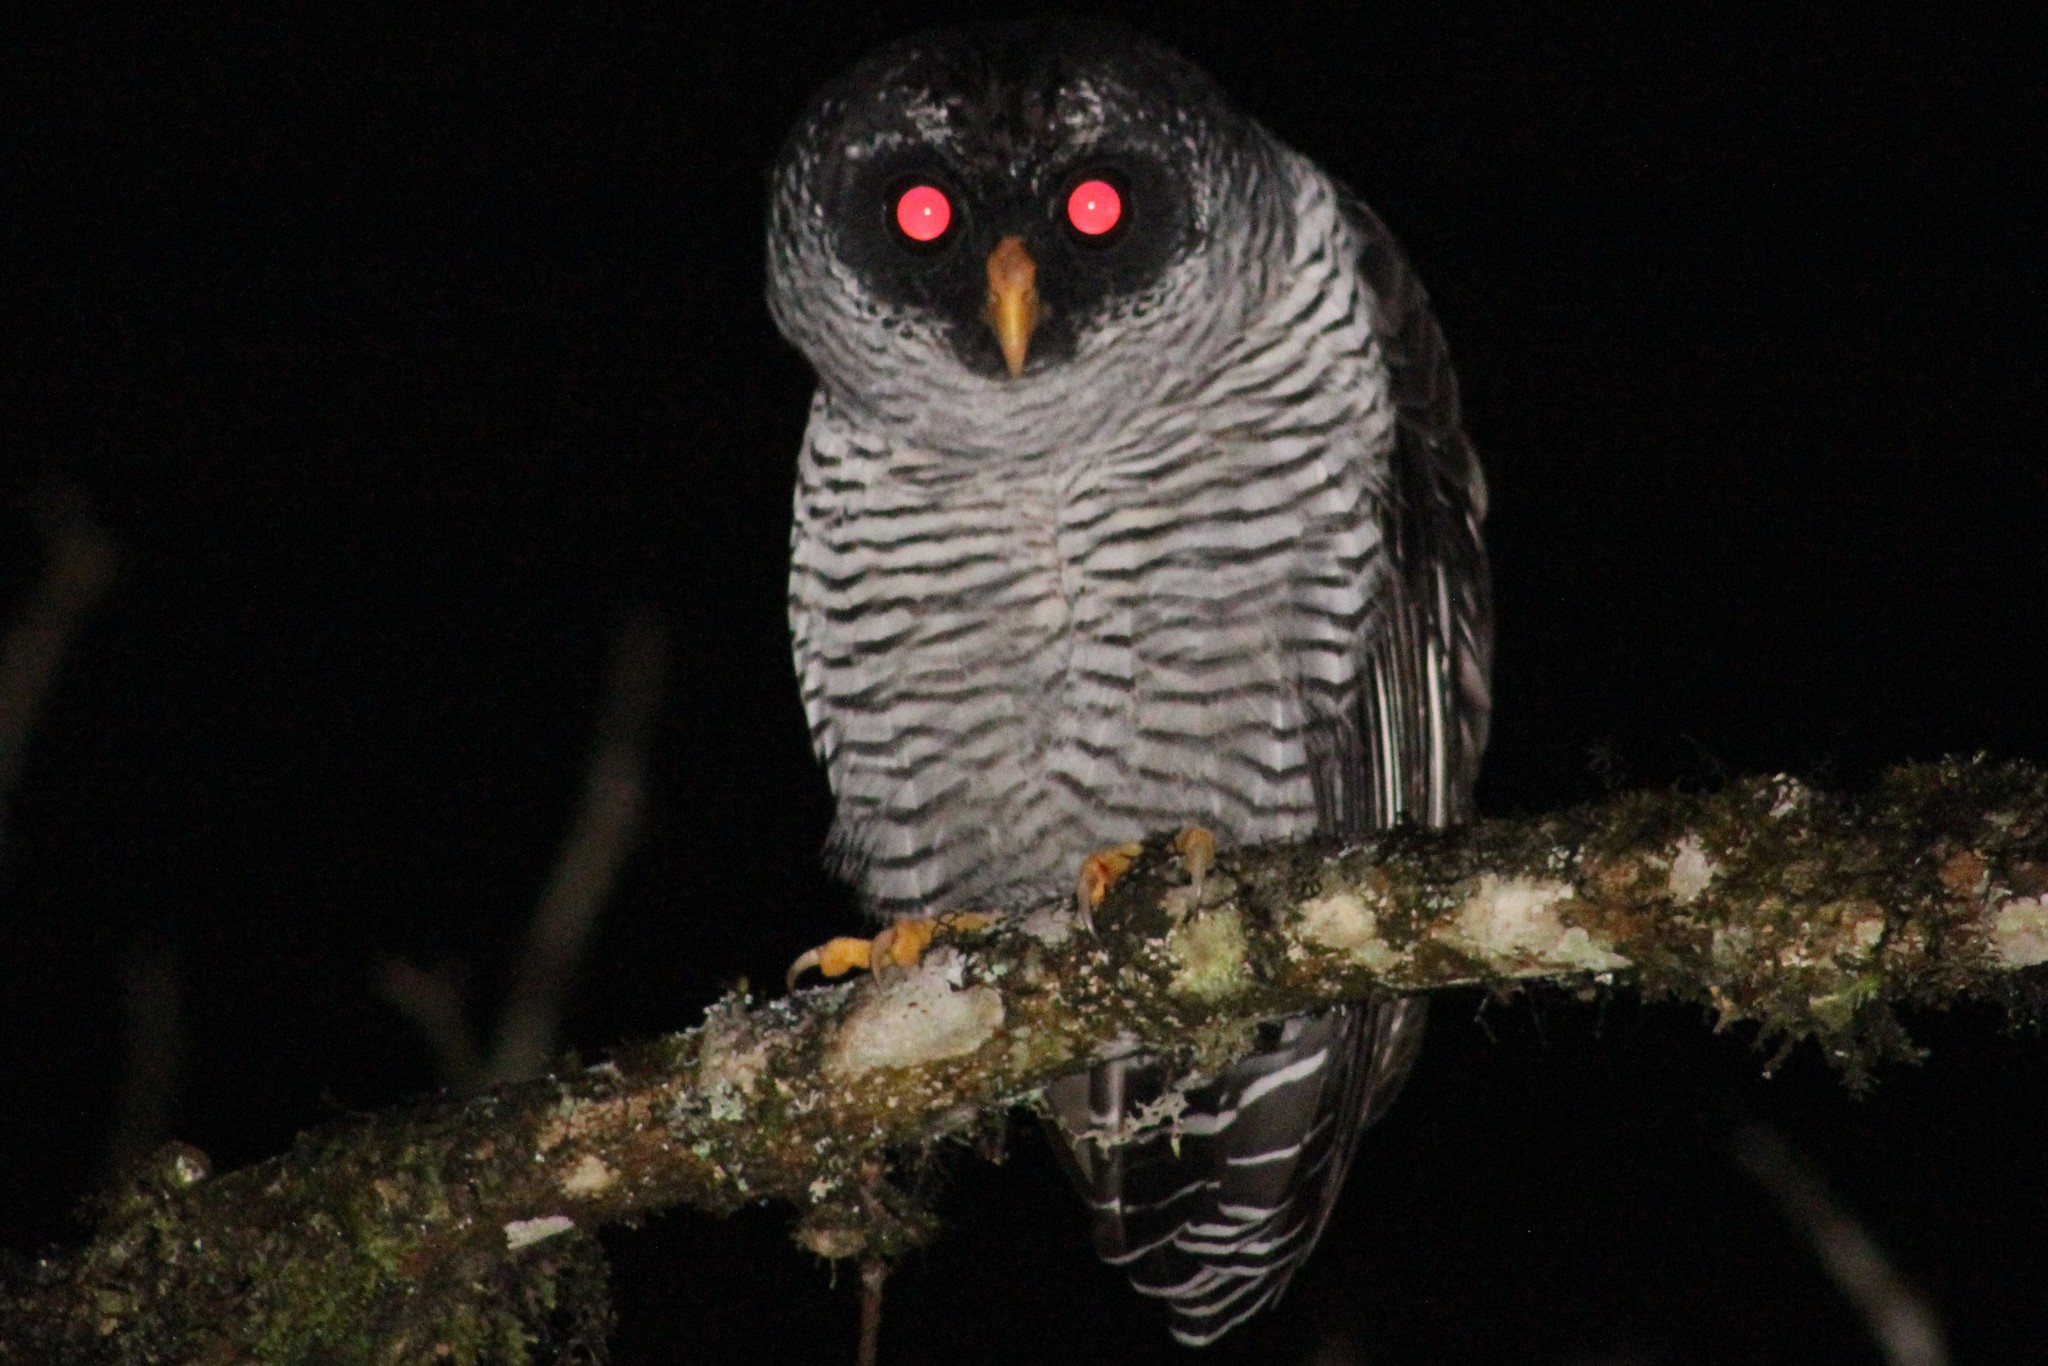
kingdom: Animalia
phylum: Chordata
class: Aves
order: Strigiformes
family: Strigidae
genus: Strix
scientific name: Strix nigrolineata
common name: Black-and-white owl
